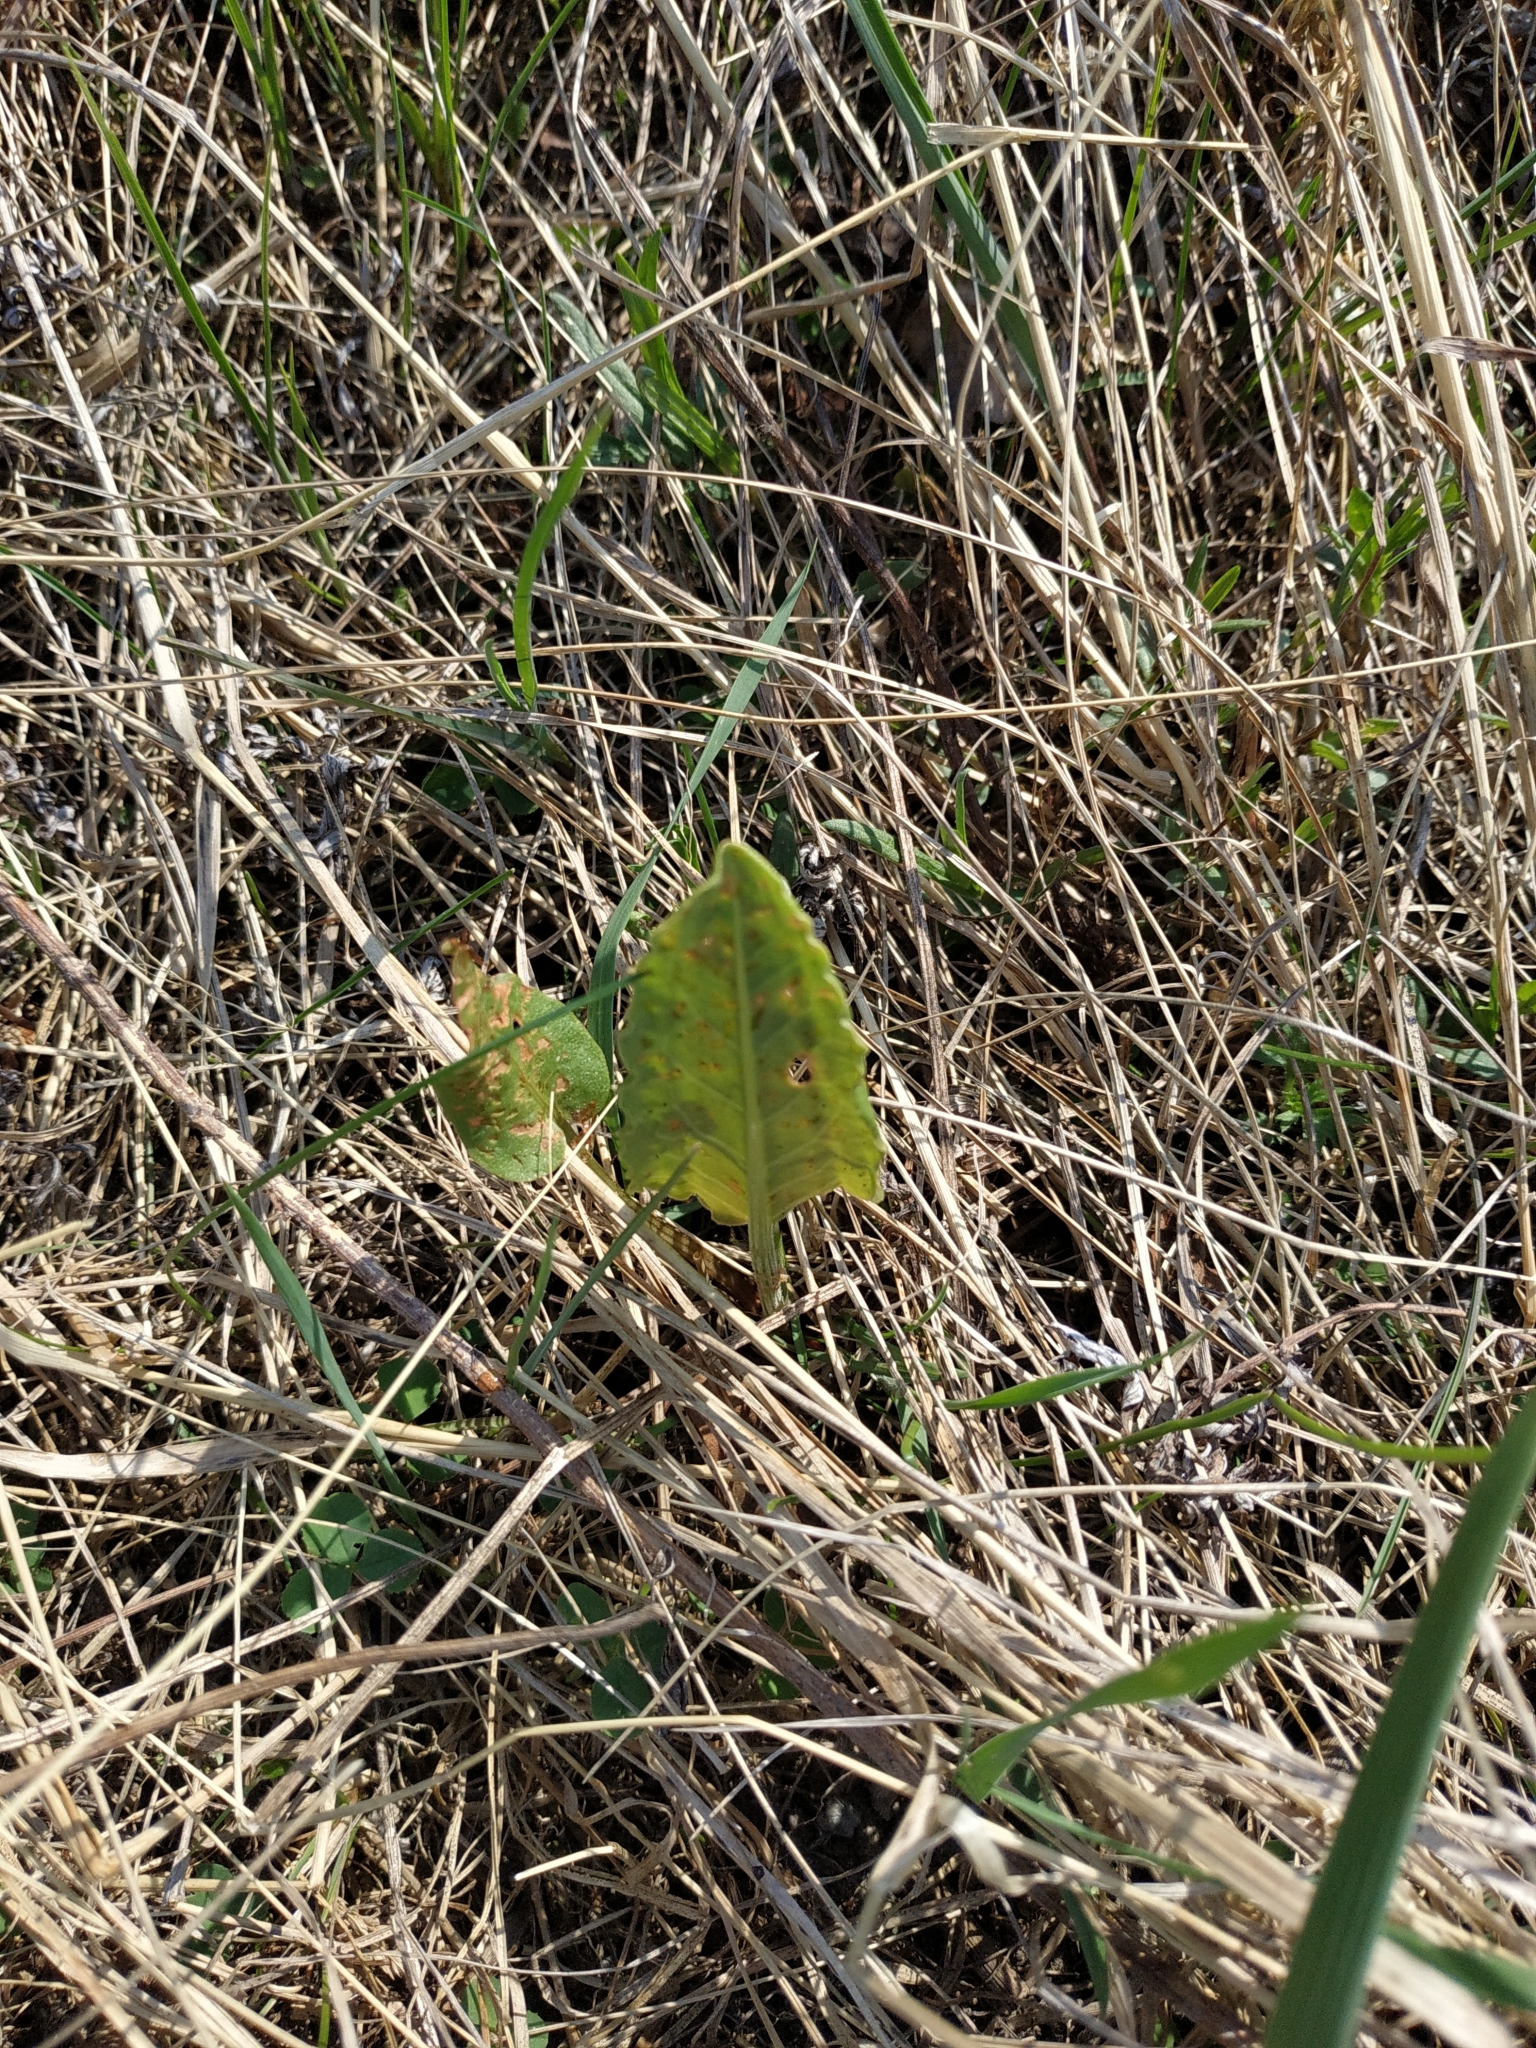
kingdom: Plantae
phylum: Tracheophyta
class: Magnoliopsida
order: Caryophyllales
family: Polygonaceae
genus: Rumex
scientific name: Rumex thyrsiflorus
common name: Garden sorrel
